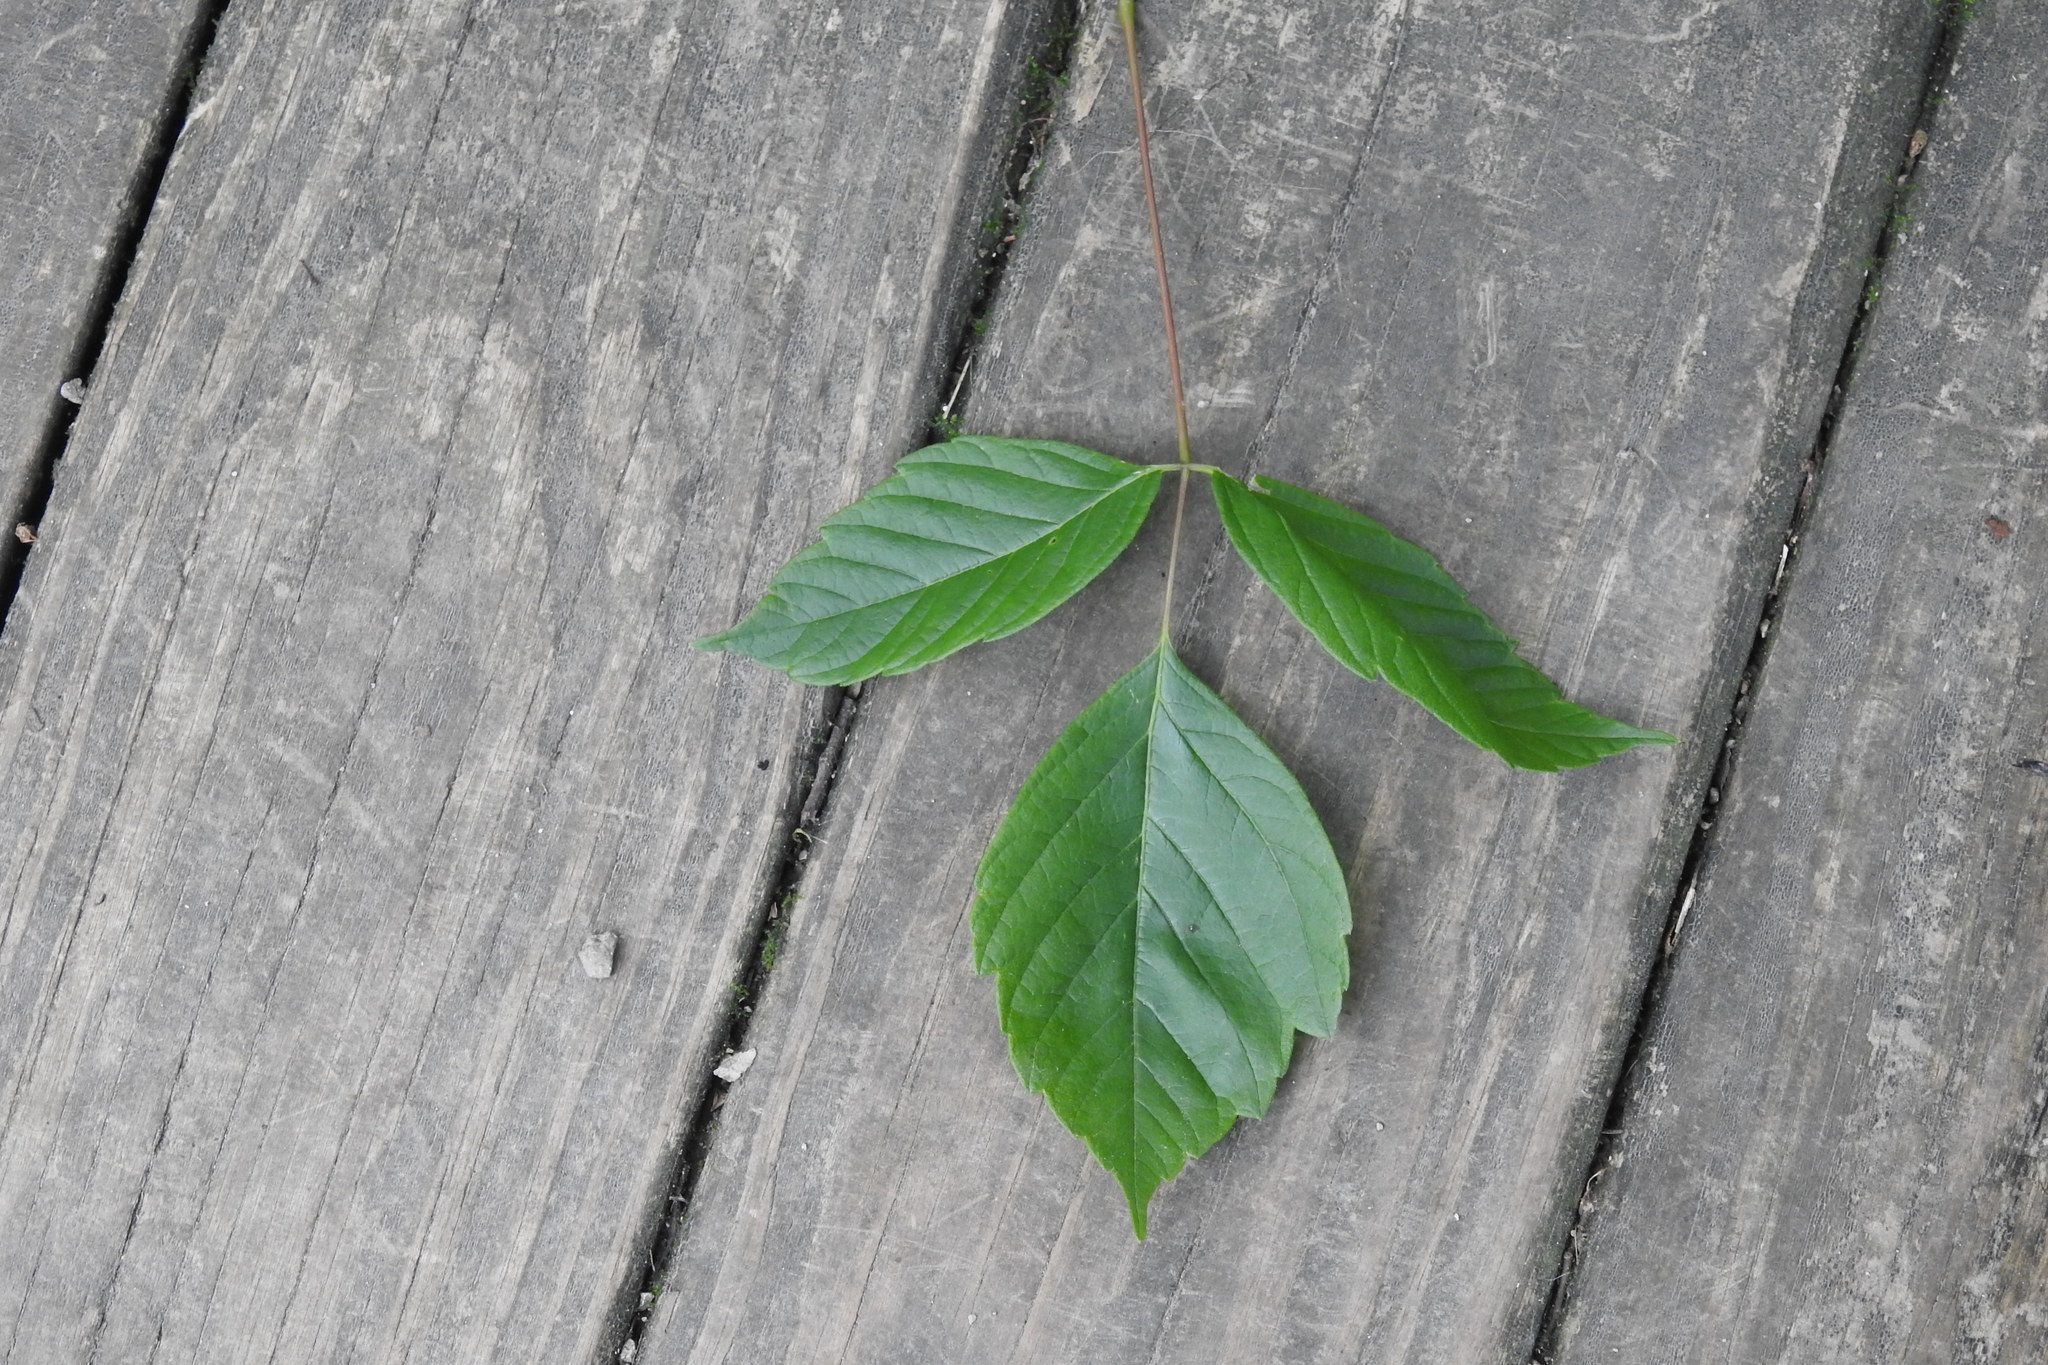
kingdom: Plantae
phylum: Tracheophyta
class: Magnoliopsida
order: Sapindales
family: Sapindaceae
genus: Acer
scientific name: Acer negundo
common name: Ashleaf maple
